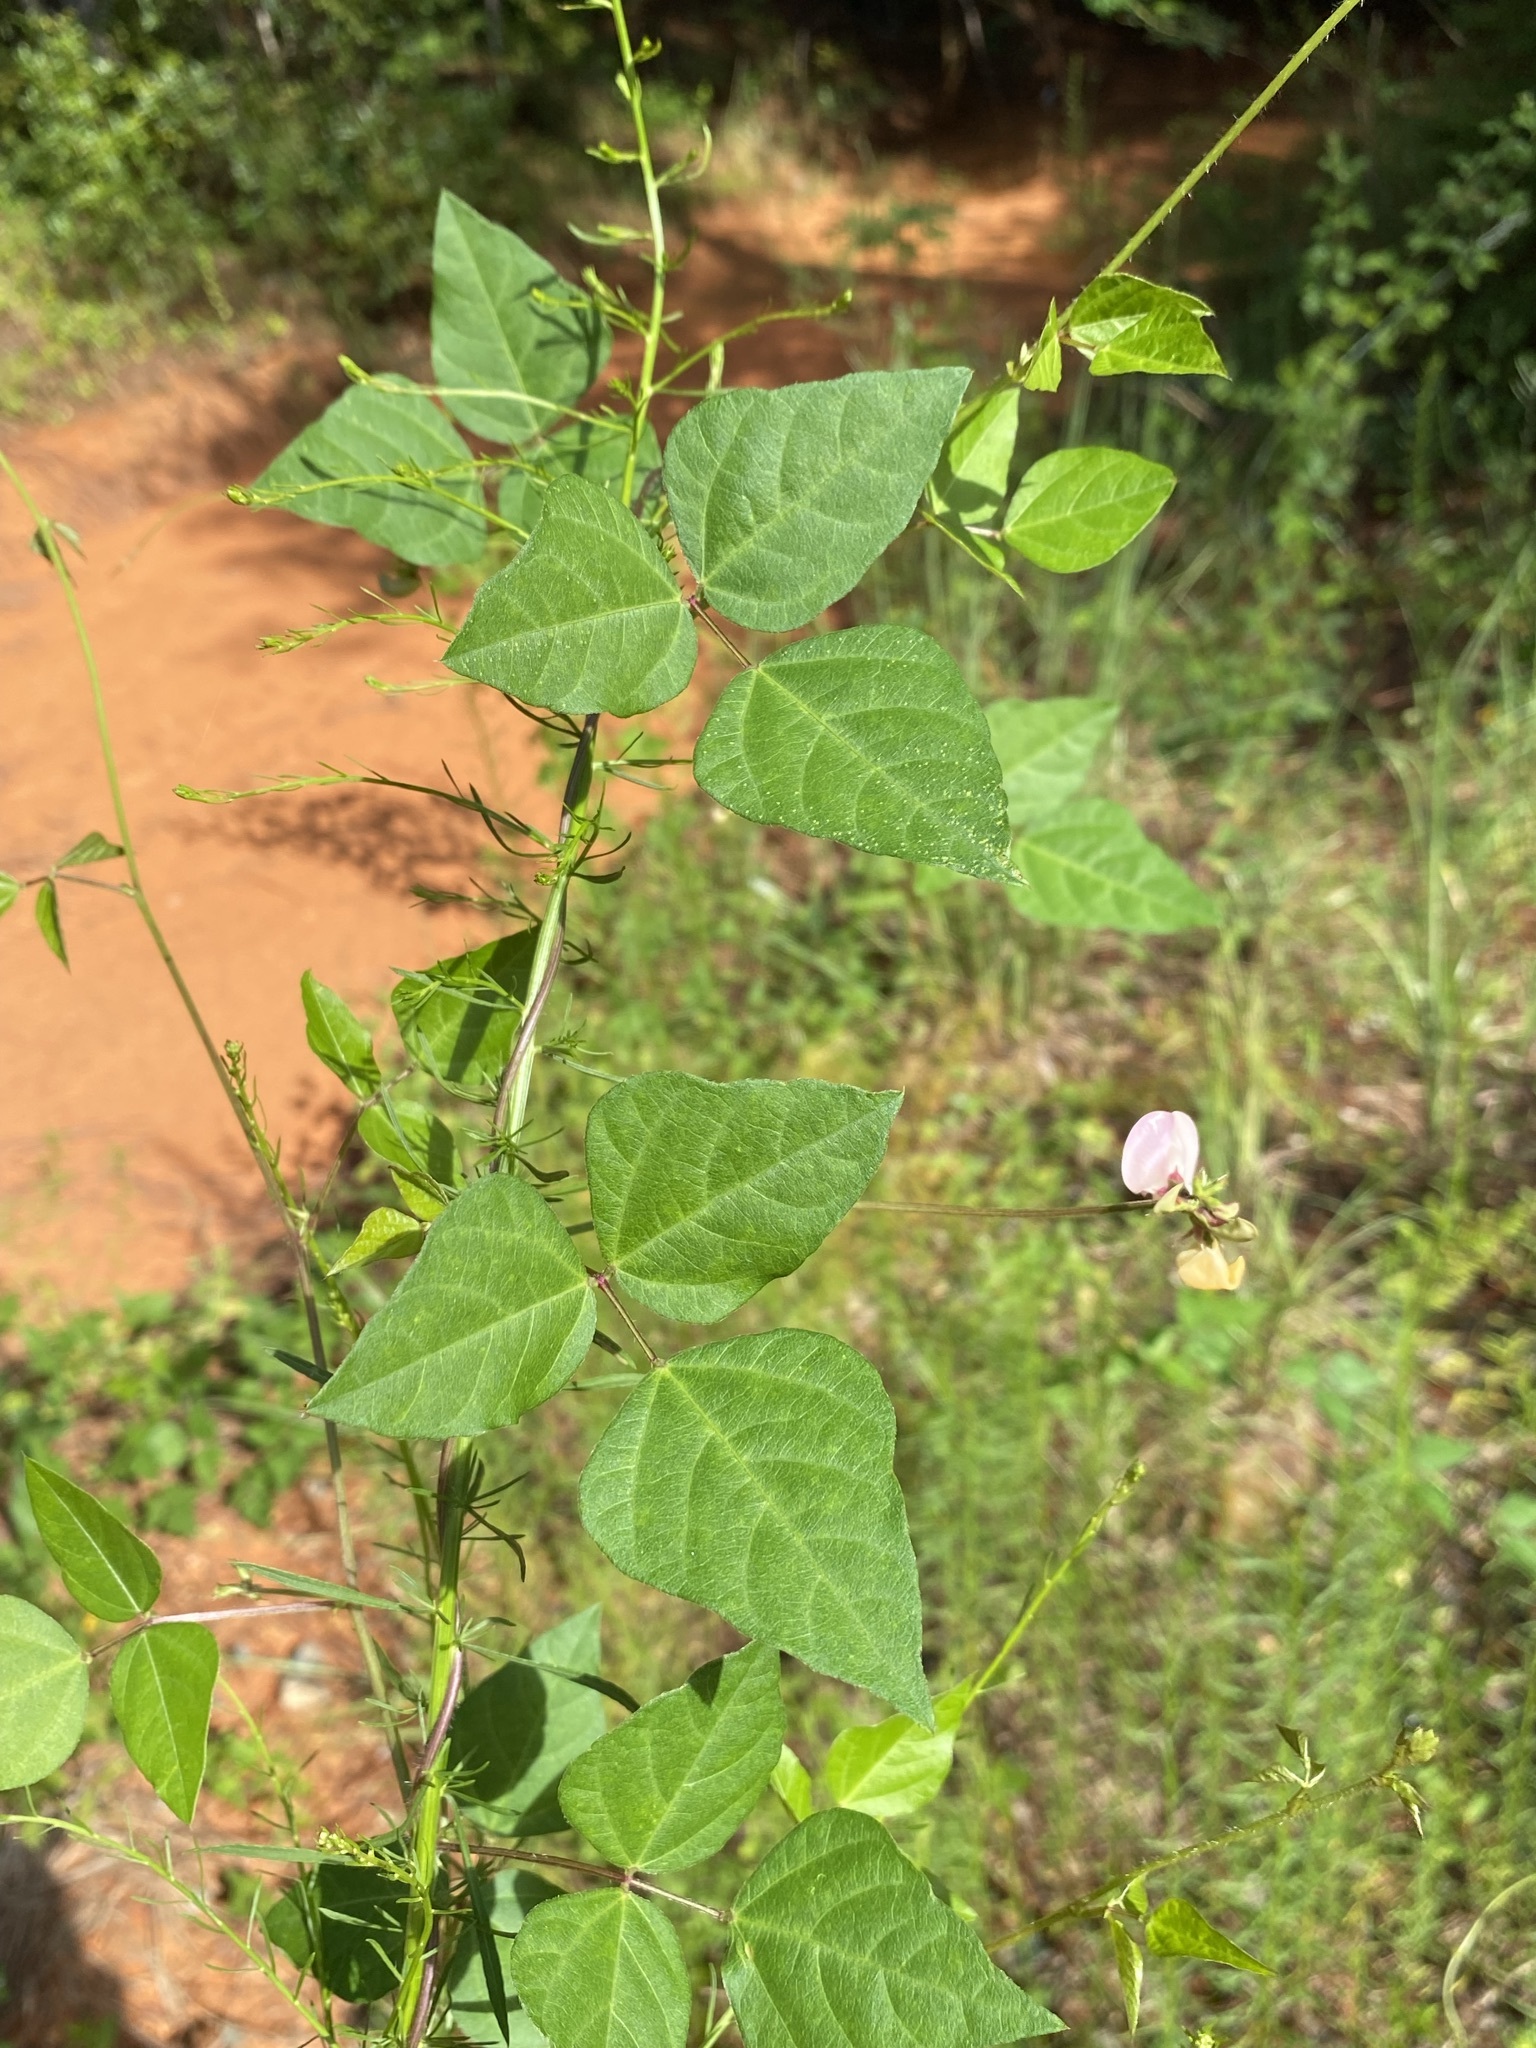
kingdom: Plantae
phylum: Tracheophyta
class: Magnoliopsida
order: Fabales
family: Fabaceae
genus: Strophostyles
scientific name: Strophostyles helvola
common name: Trailing wild bean
